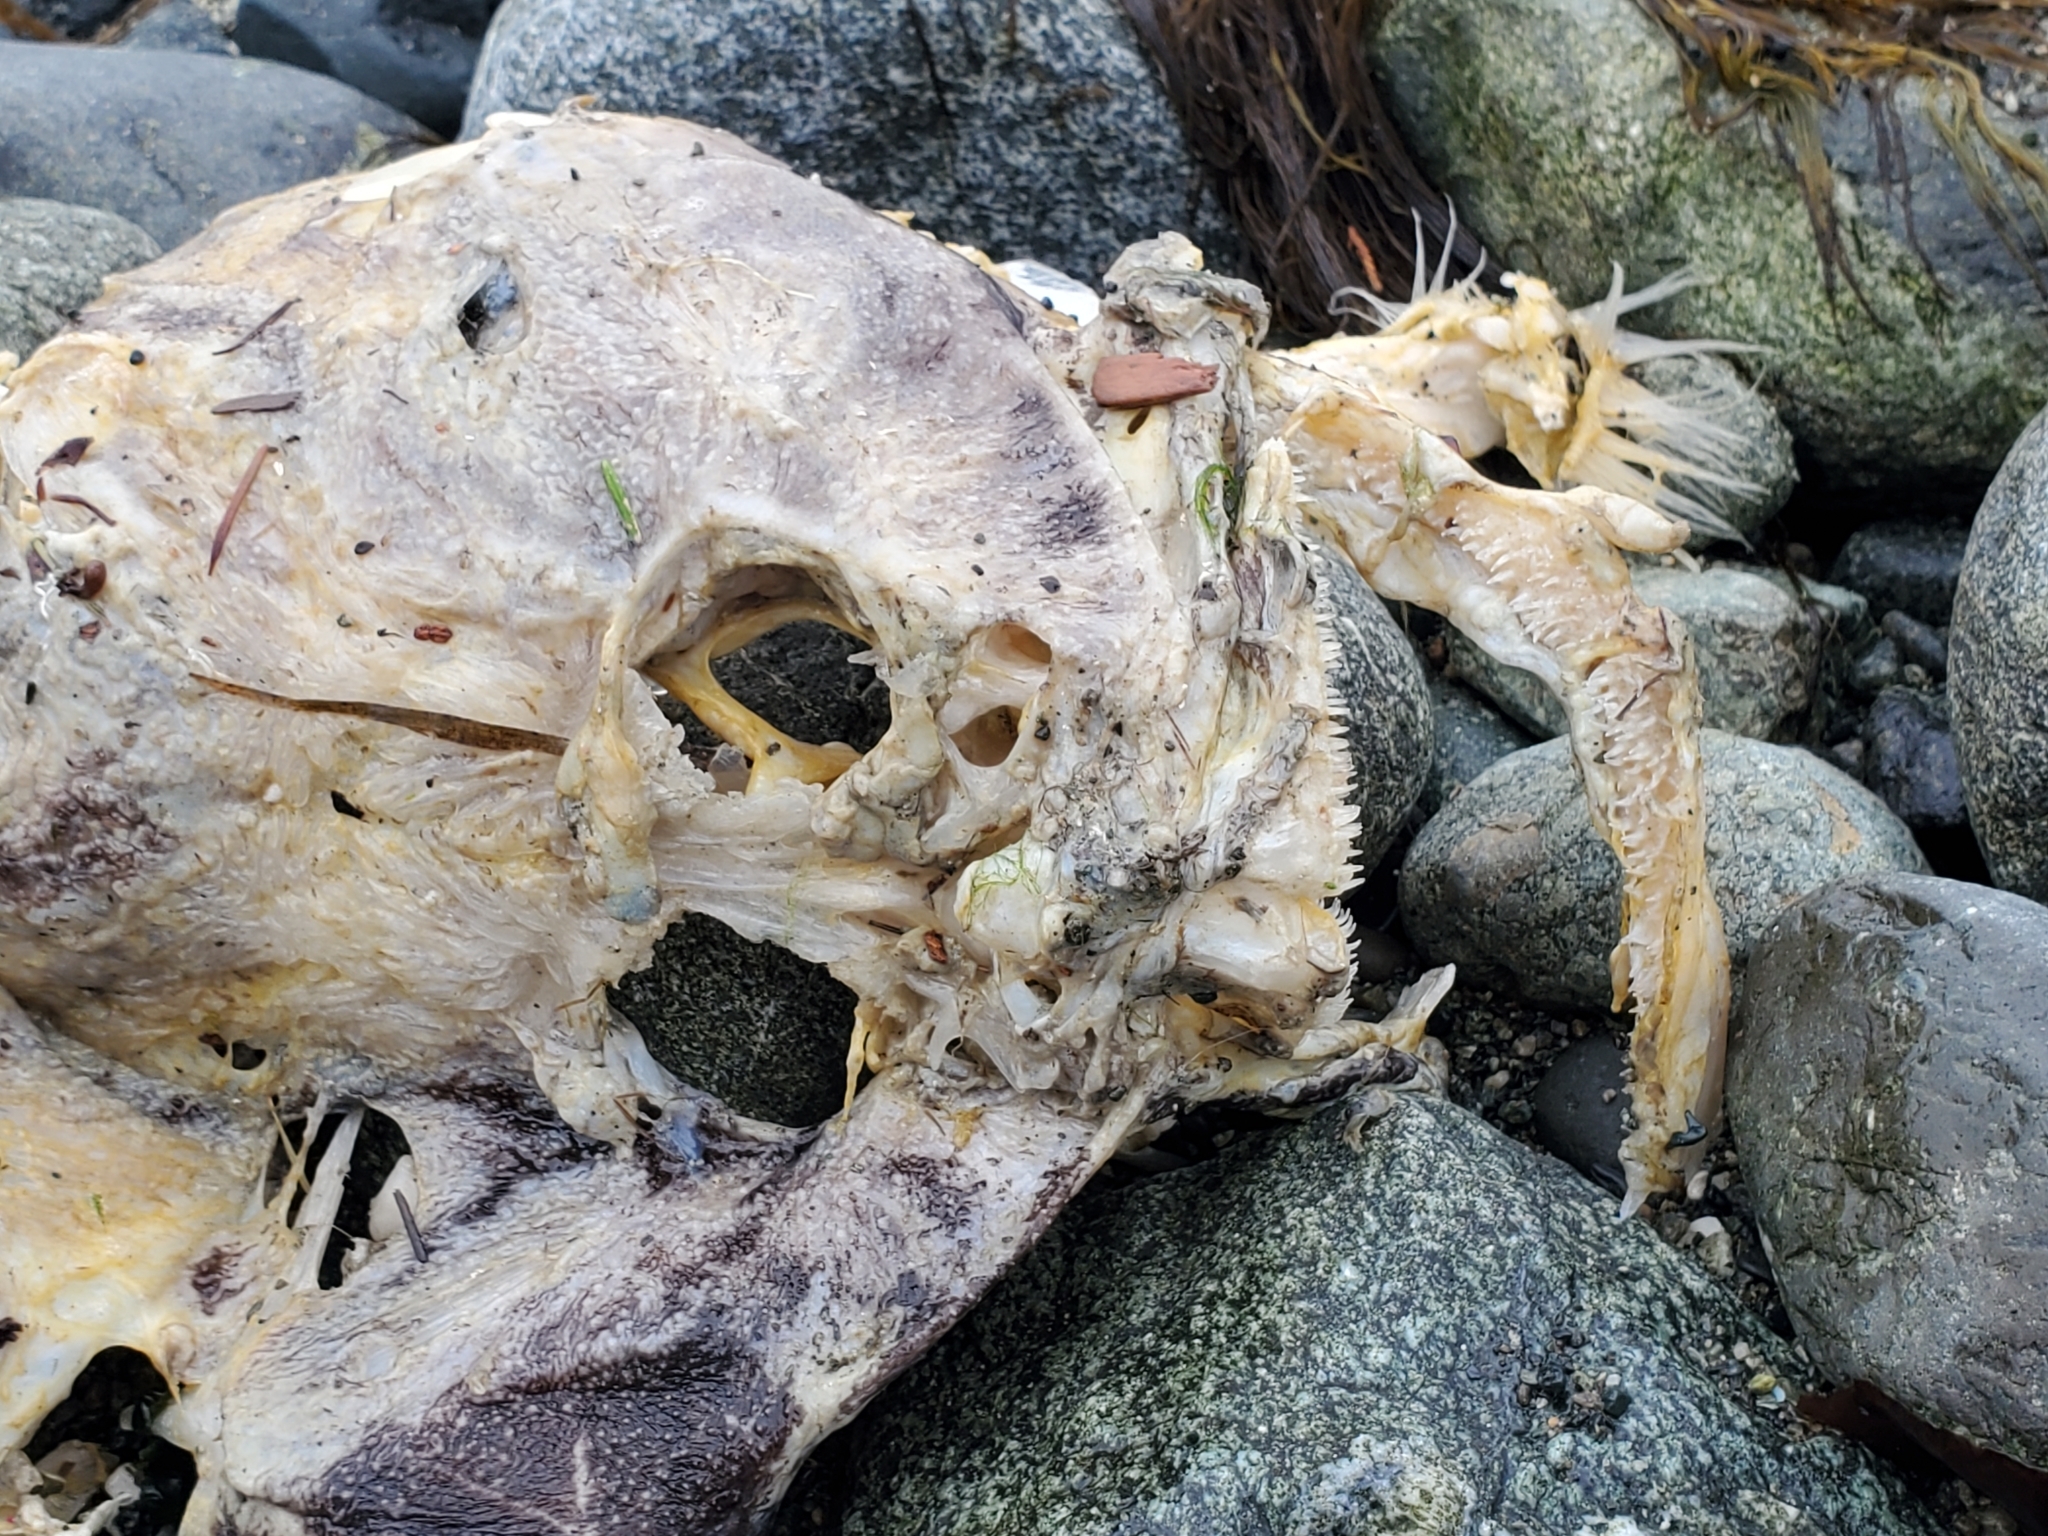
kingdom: Animalia
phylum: Chordata
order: Scorpaeniformes
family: Cottidae
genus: Myoxocephalus
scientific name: Myoxocephalus polyacanthocephalus
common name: Great sculpin
